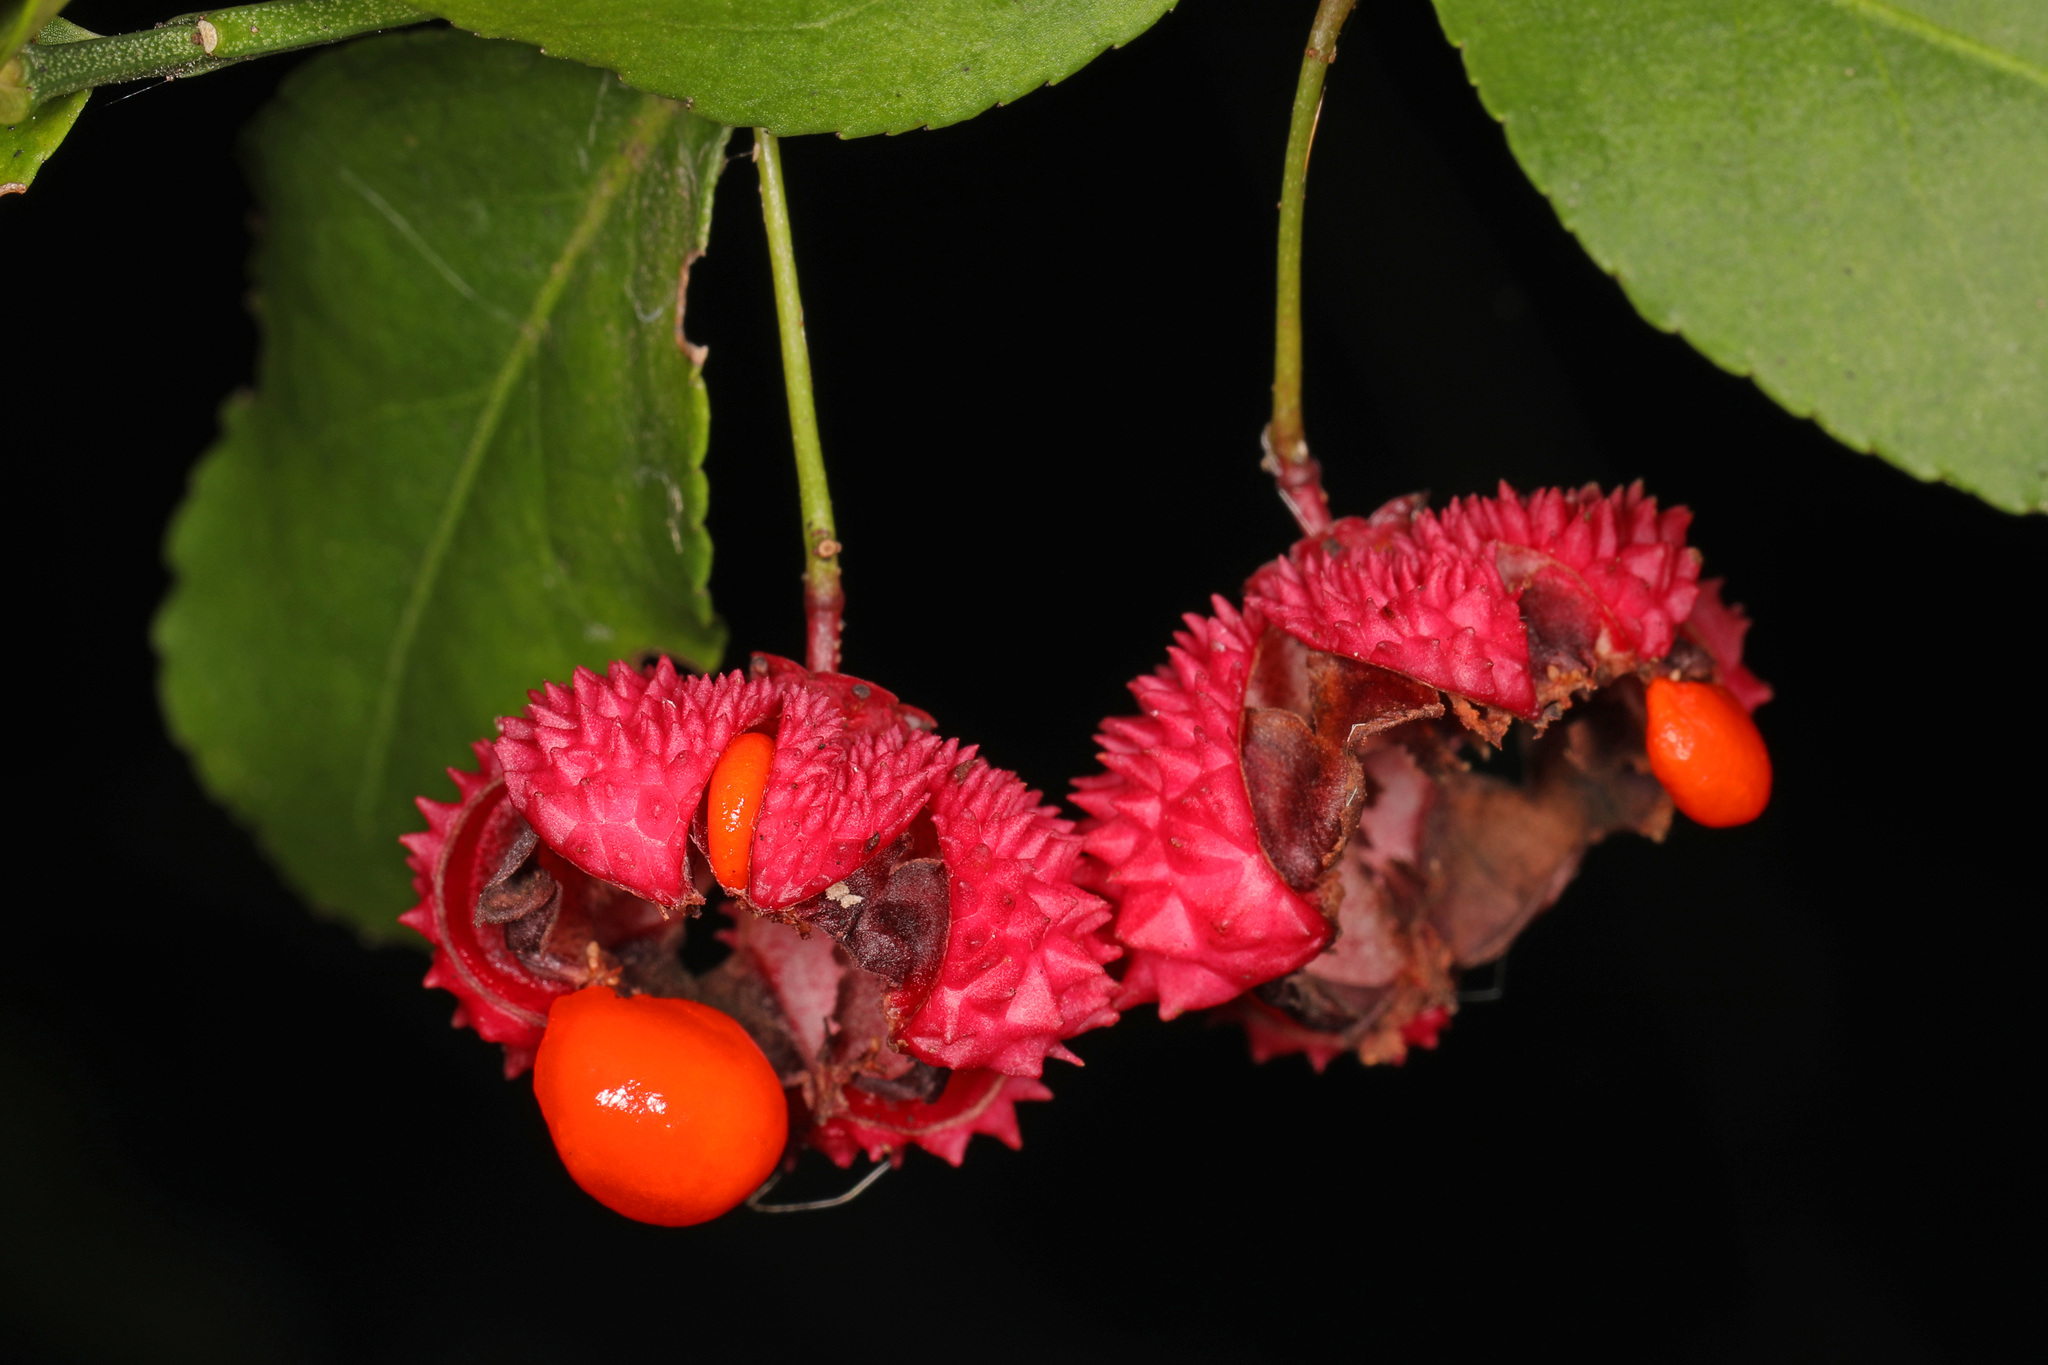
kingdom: Plantae
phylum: Tracheophyta
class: Magnoliopsida
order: Celastrales
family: Celastraceae
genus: Euonymus
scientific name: Euonymus americanus
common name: Bursting-heart
